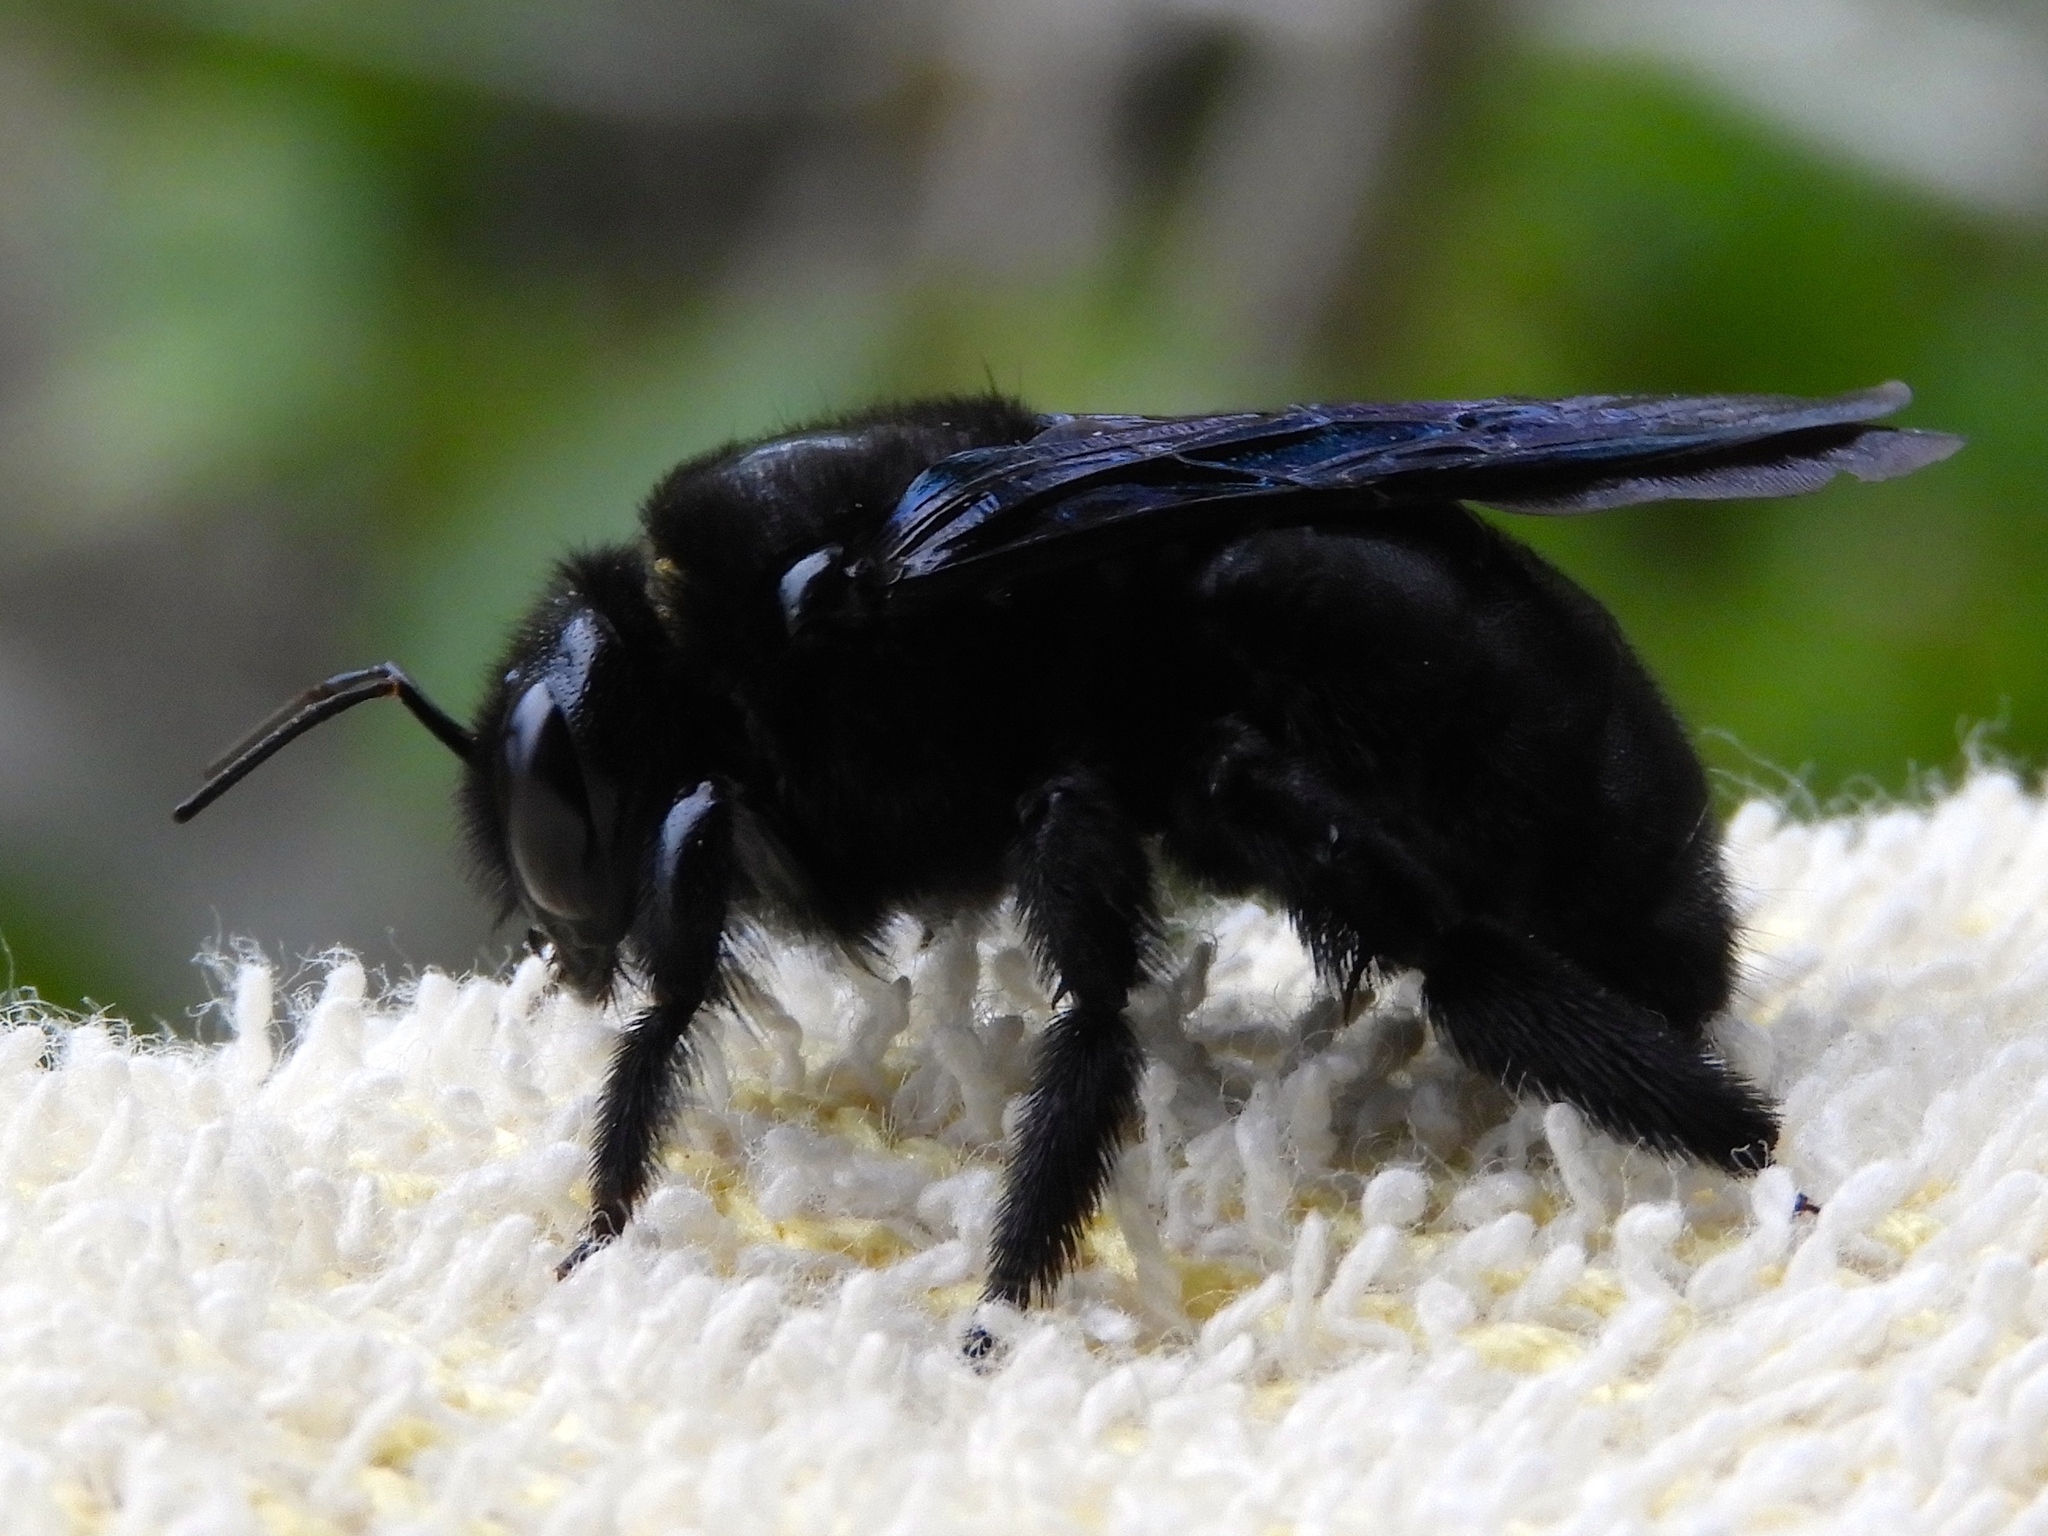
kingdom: Animalia
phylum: Arthropoda
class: Insecta
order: Hymenoptera
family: Apidae
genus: Xylocopa
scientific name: Xylocopa
